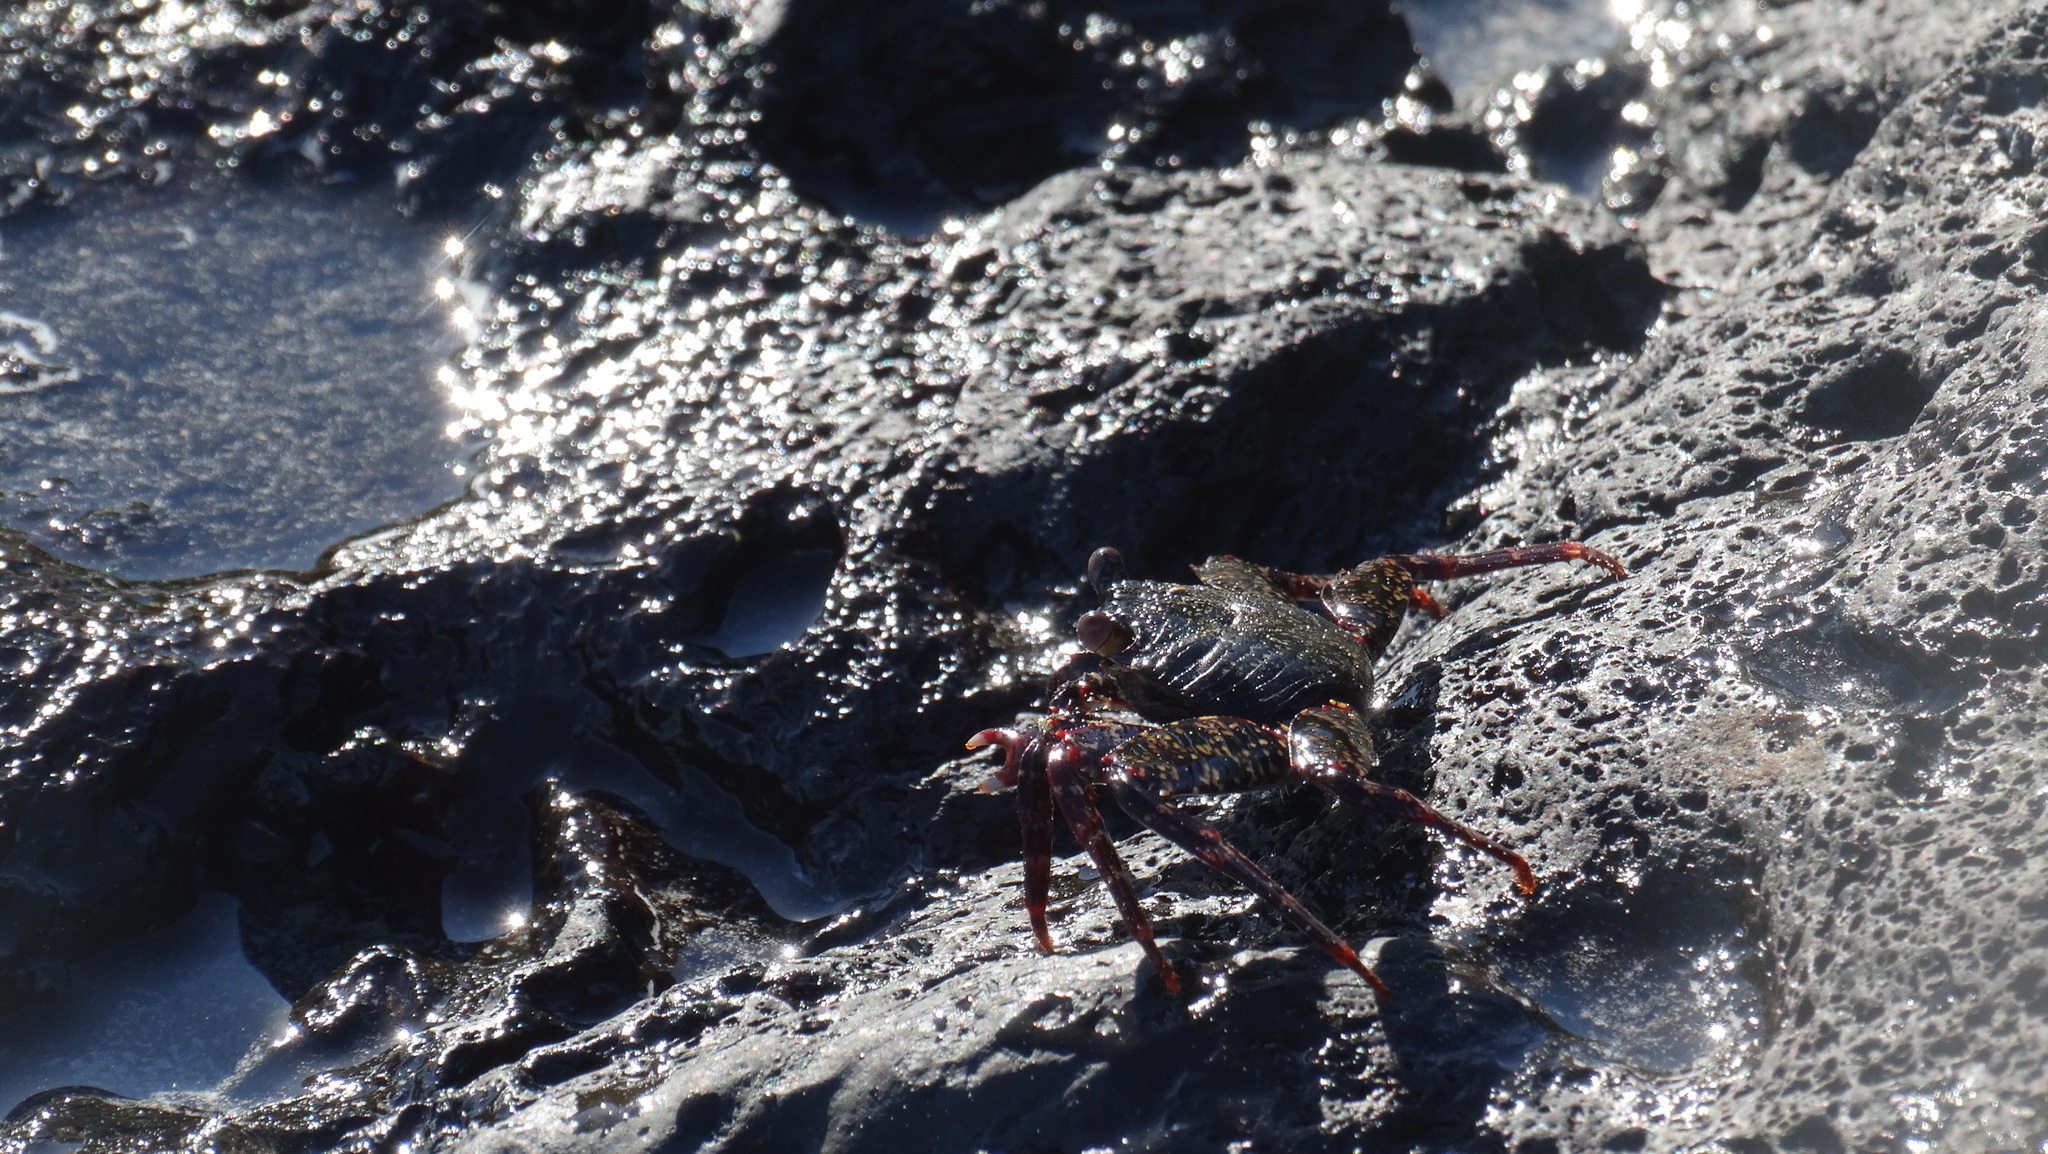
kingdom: Animalia
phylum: Arthropoda
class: Malacostraca
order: Decapoda
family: Grapsidae
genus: Grapsus
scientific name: Grapsus grapsus
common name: Sally lightfoot
